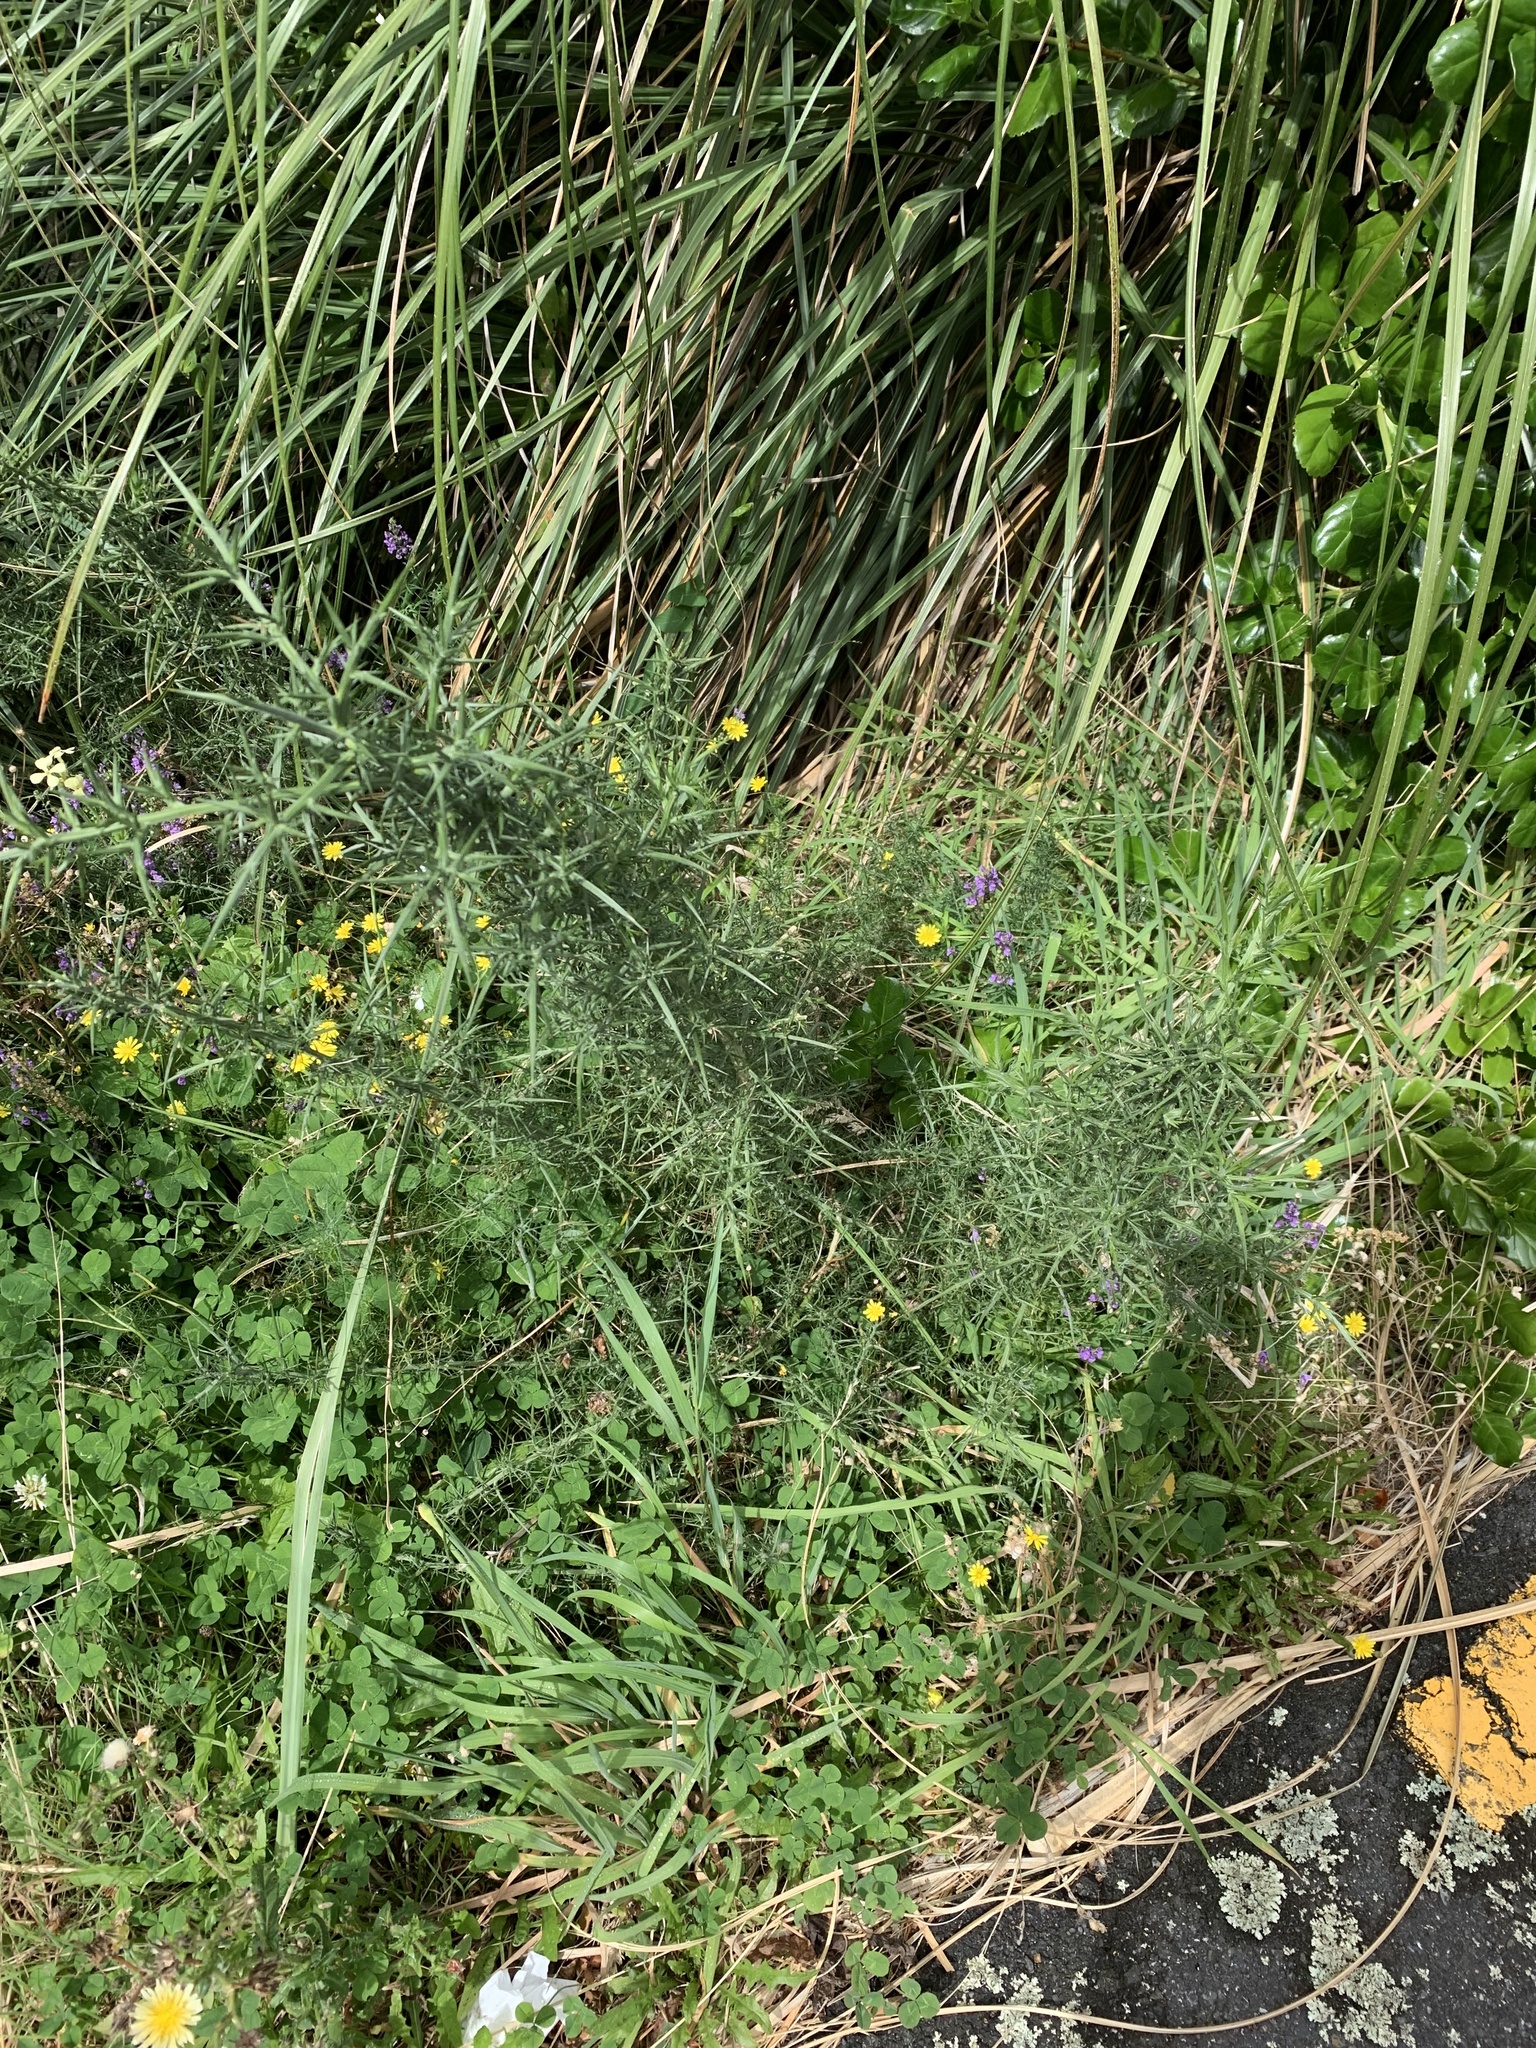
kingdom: Plantae
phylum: Tracheophyta
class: Magnoliopsida
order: Fabales
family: Fabaceae
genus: Ulex
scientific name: Ulex europaeus
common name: Common gorse
